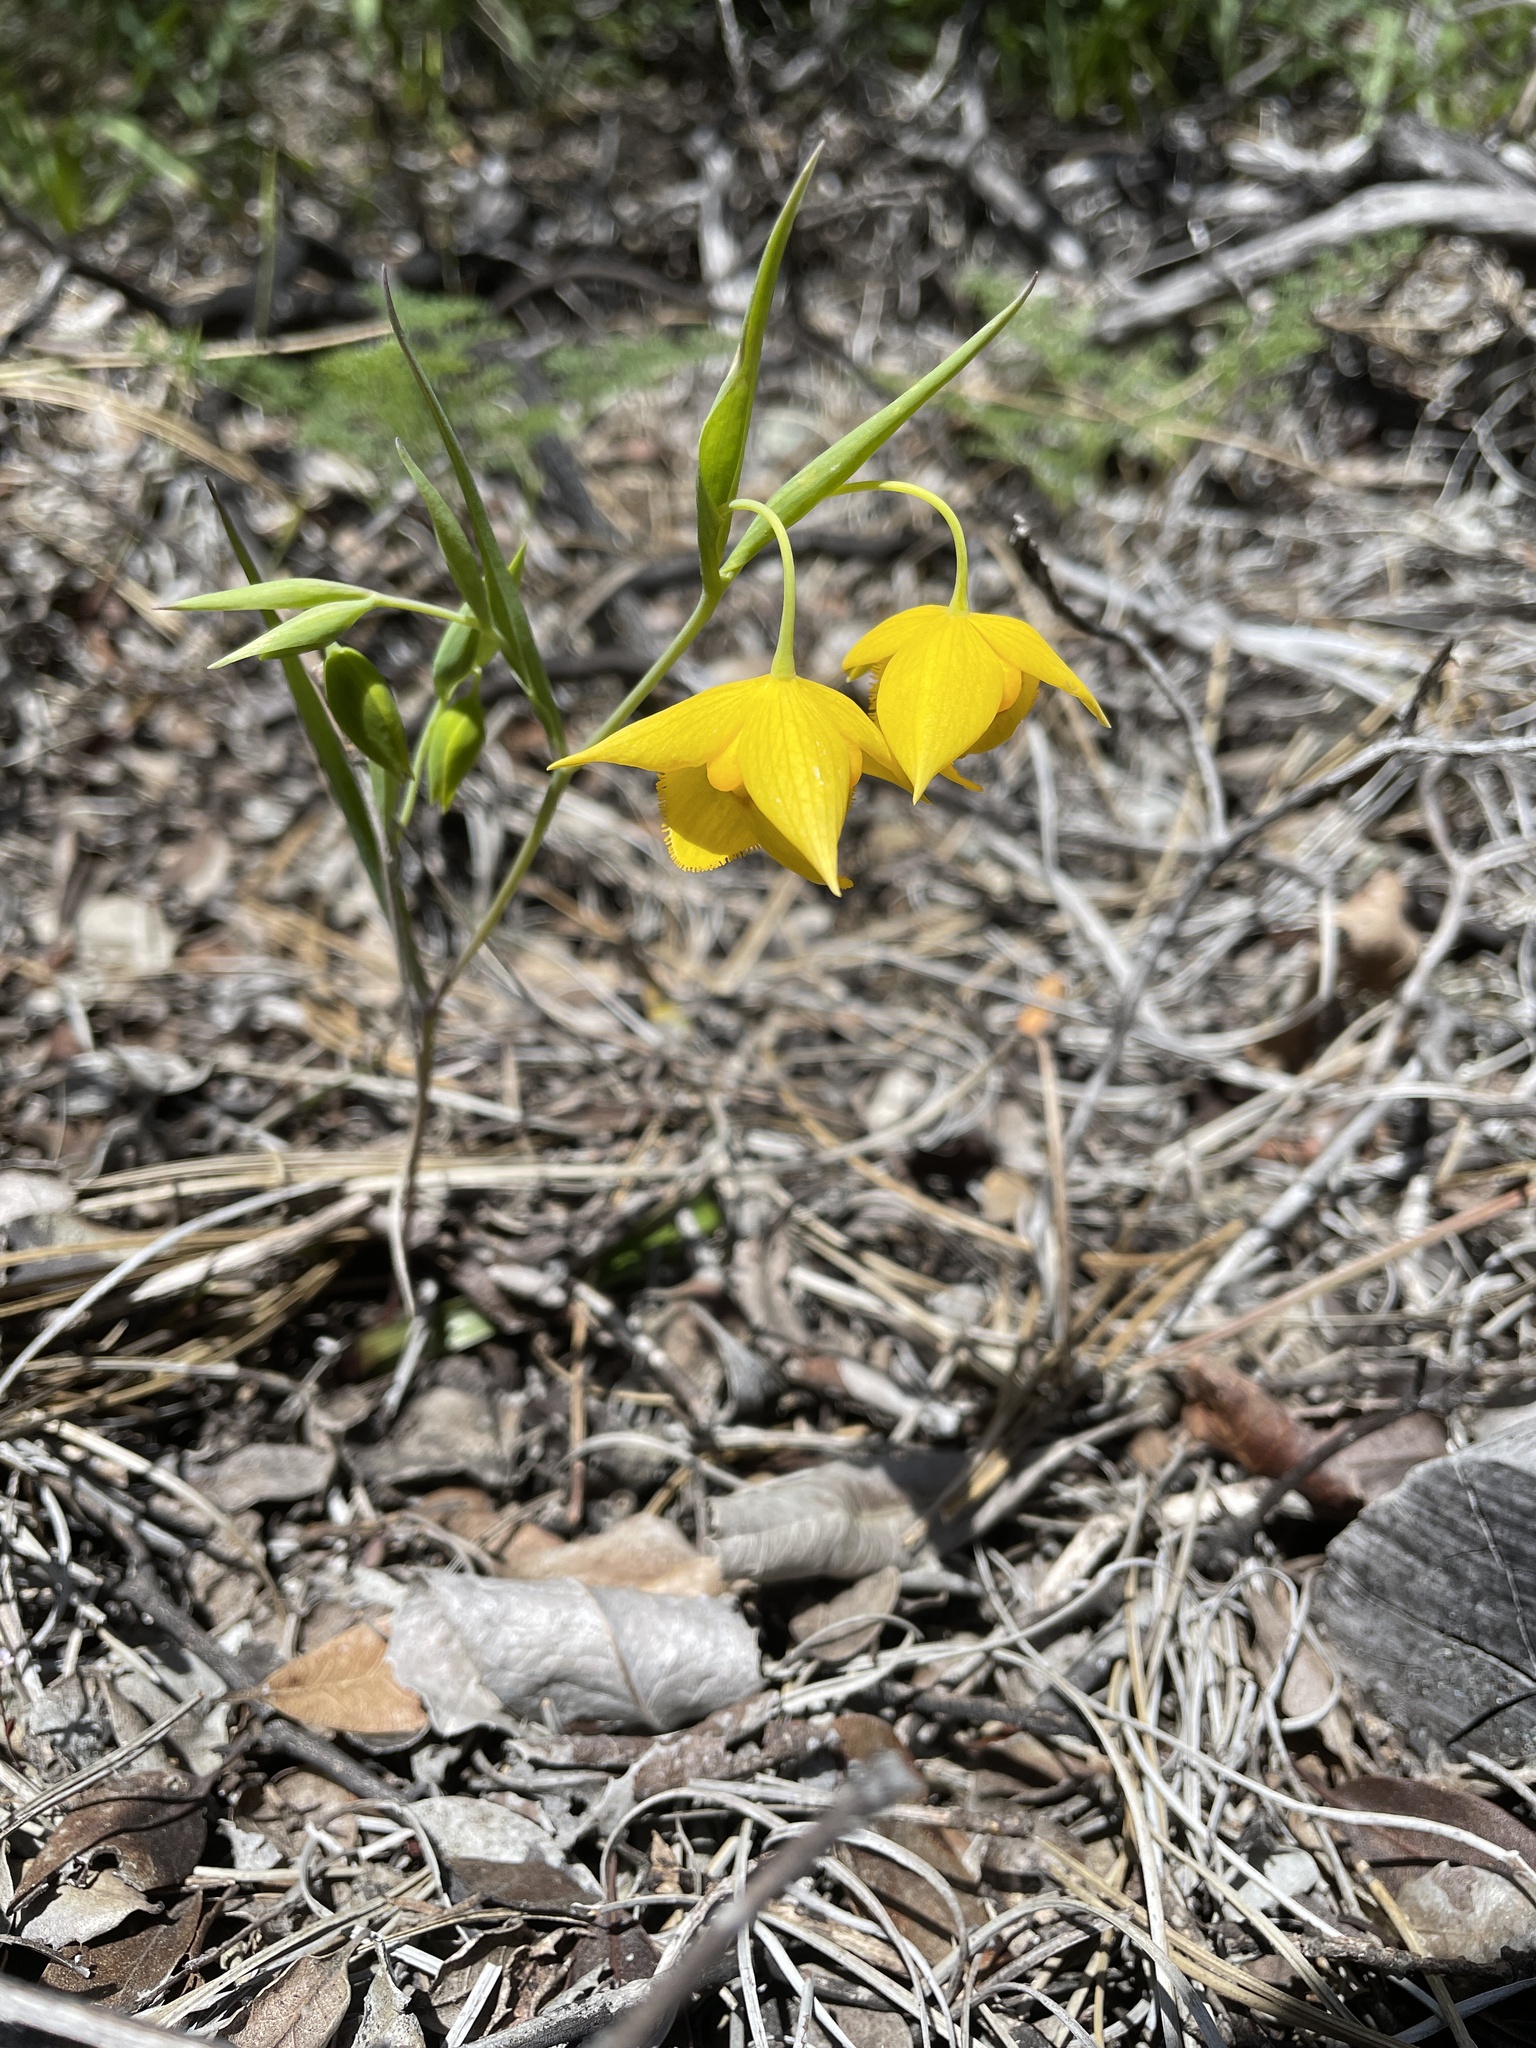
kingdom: Plantae
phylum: Tracheophyta
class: Liliopsida
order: Liliales
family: Liliaceae
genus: Calochortus
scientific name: Calochortus amabilis
